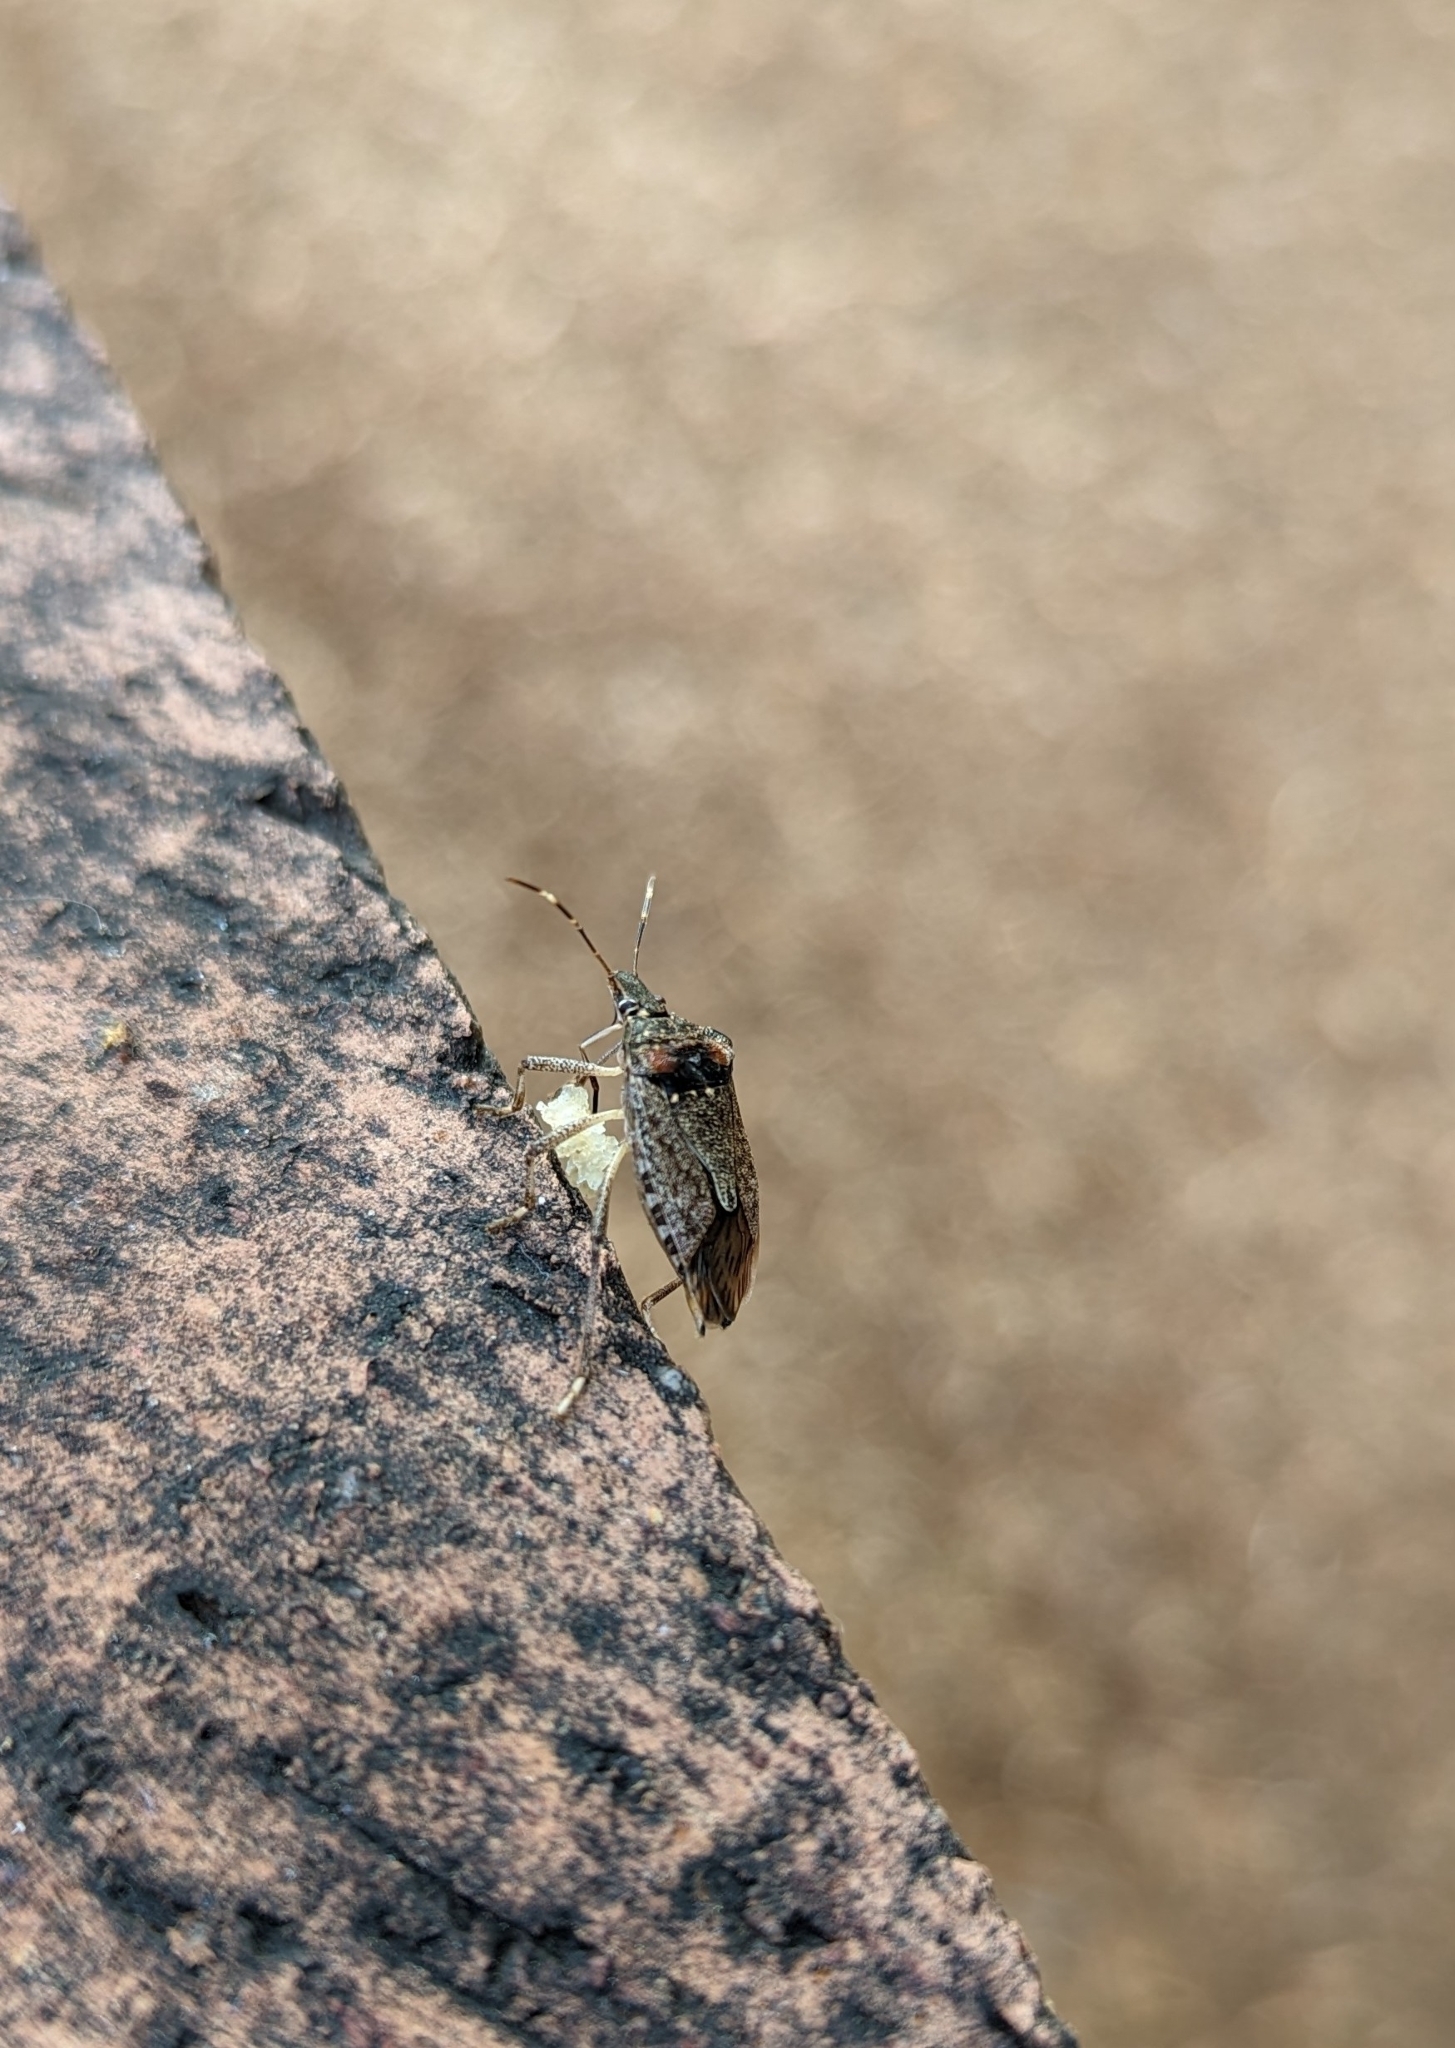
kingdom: Animalia
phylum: Arthropoda
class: Insecta
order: Hemiptera
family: Pentatomidae
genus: Halyomorpha
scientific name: Halyomorpha halys
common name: Brown marmorated stink bug
